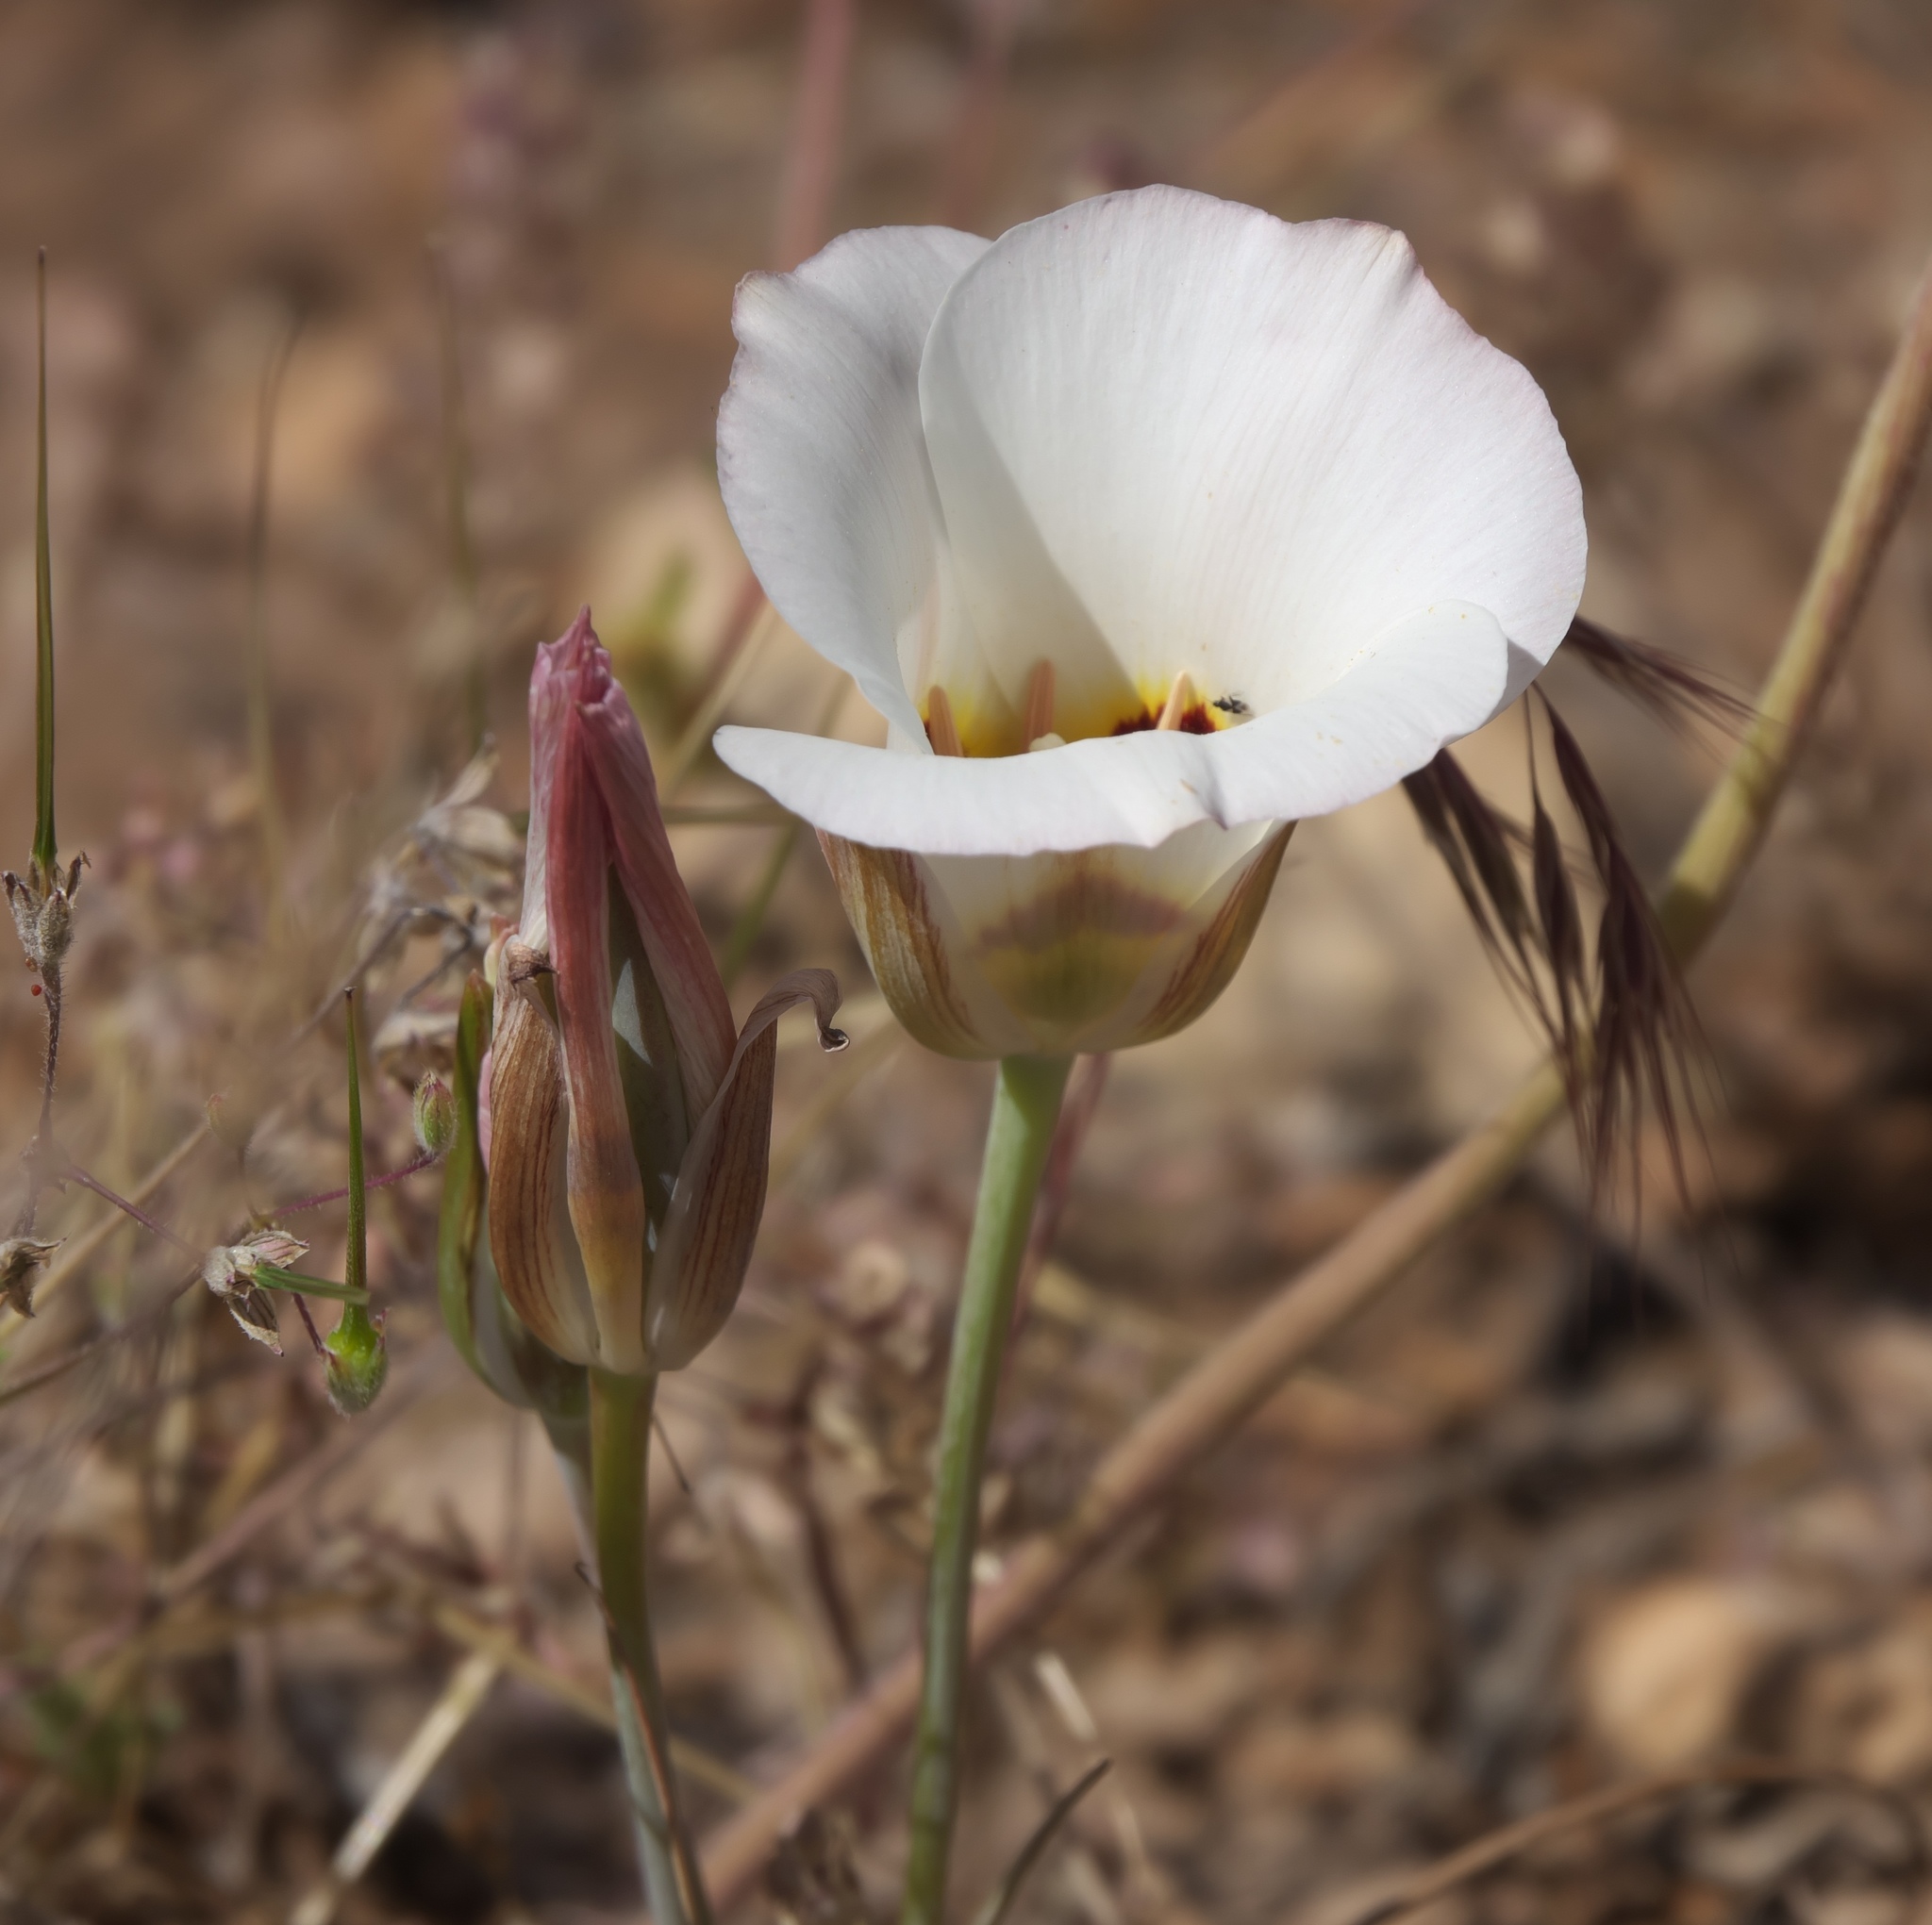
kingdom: Plantae
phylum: Tracheophyta
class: Liliopsida
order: Liliales
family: Liliaceae
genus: Calochortus
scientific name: Calochortus nuttallii
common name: Sego-lily
